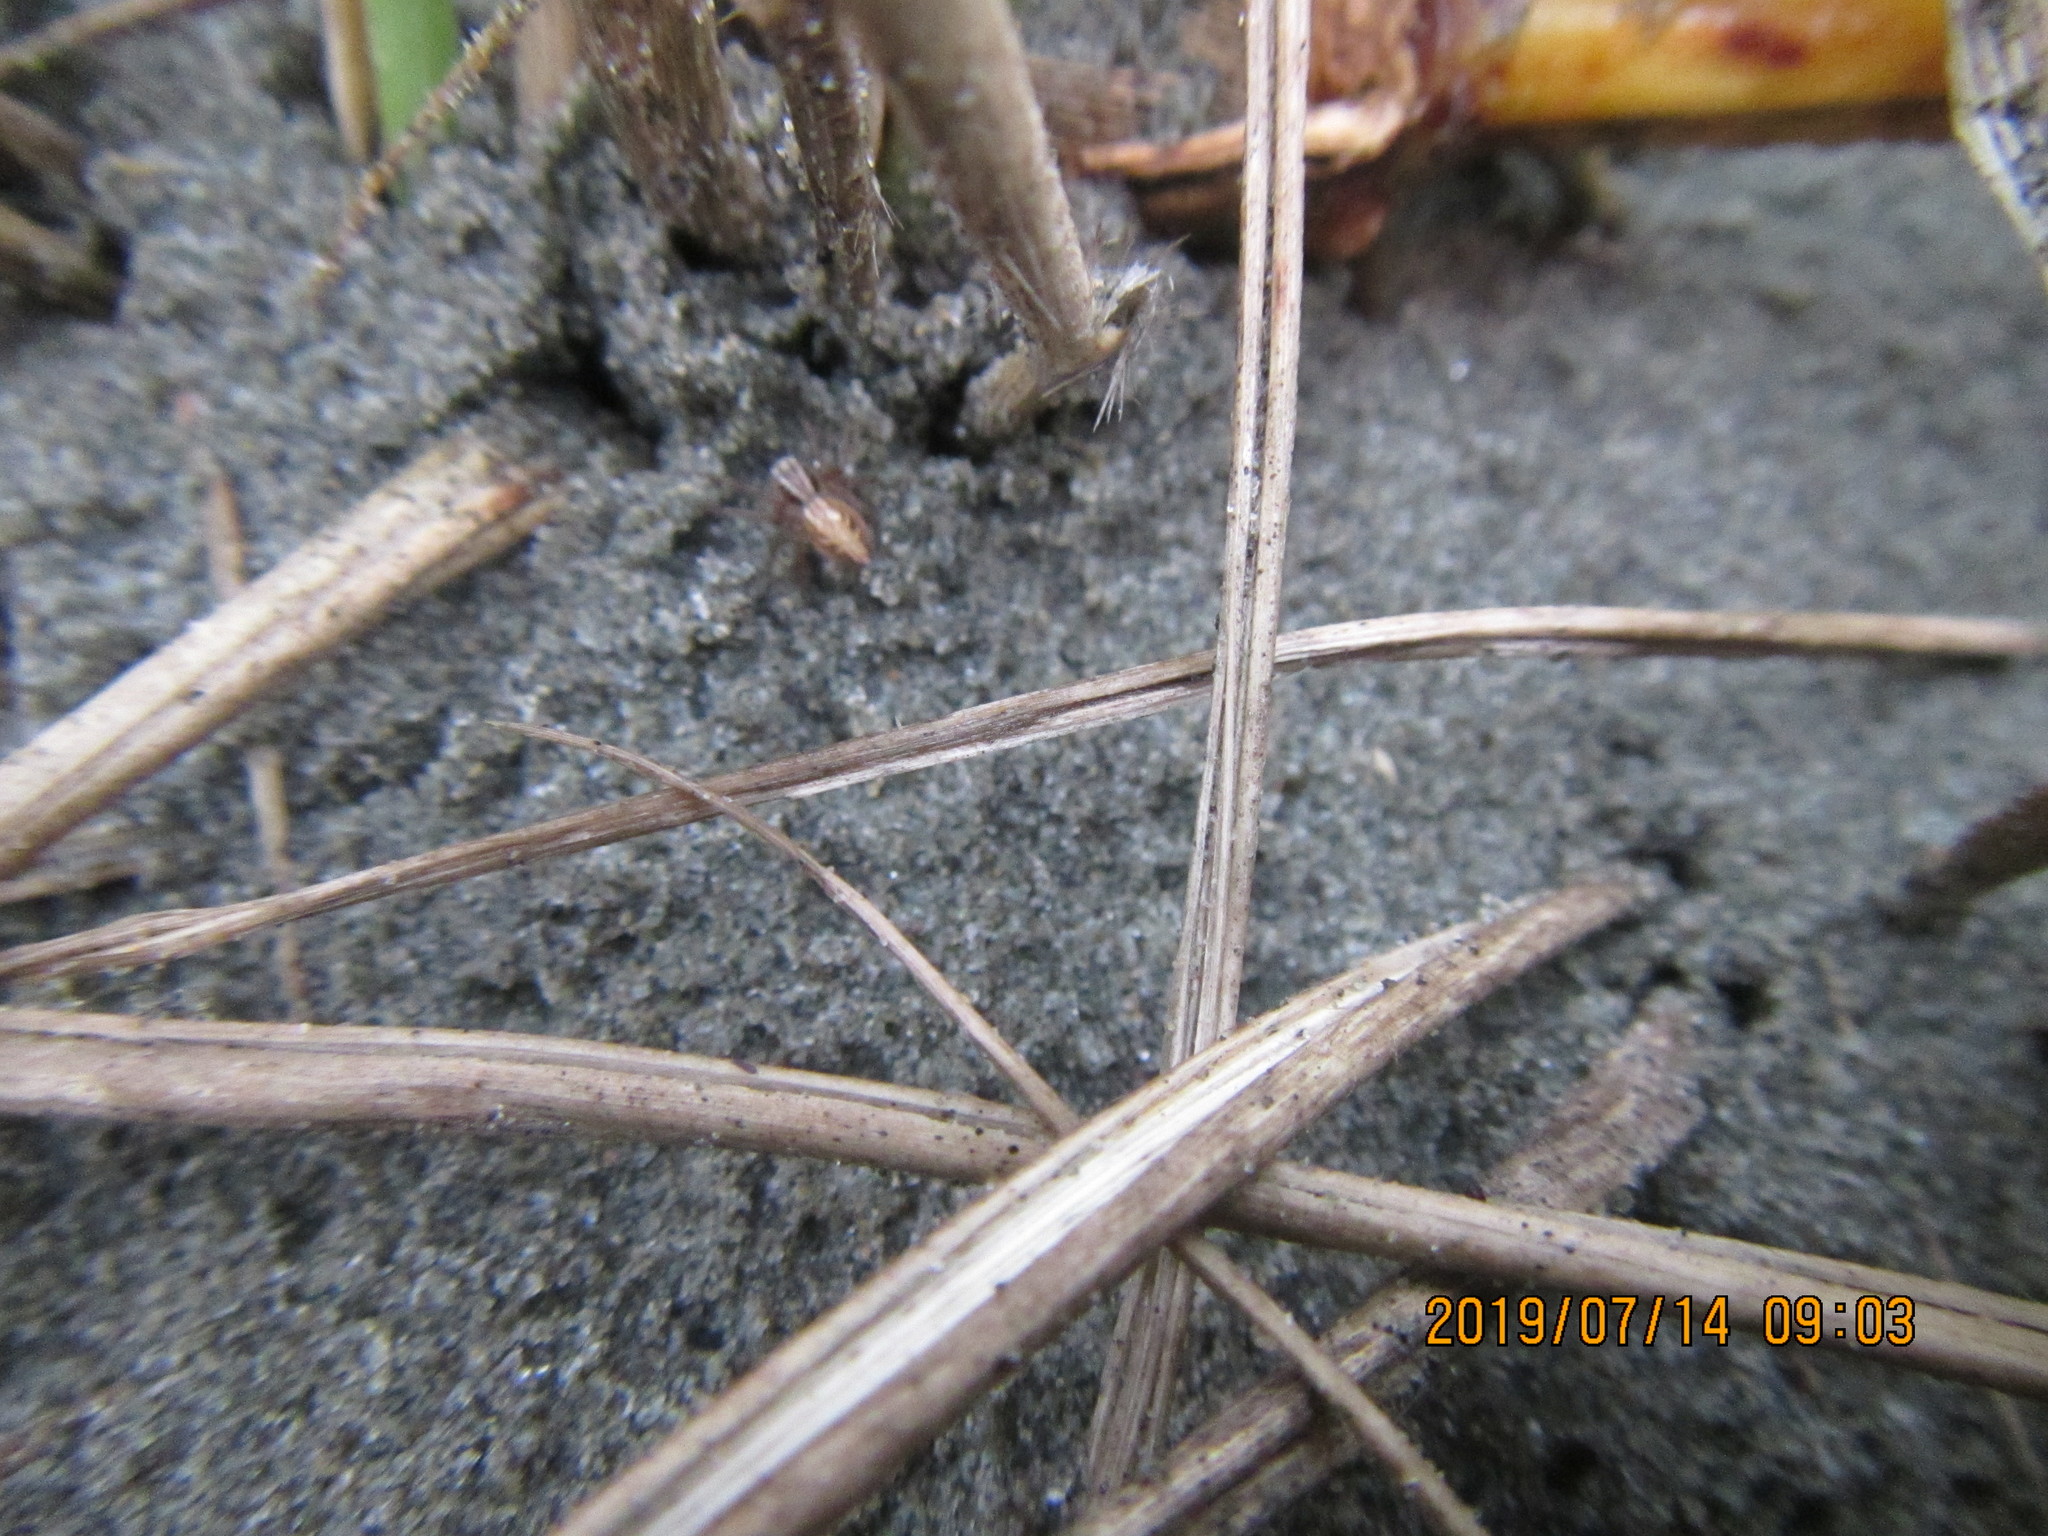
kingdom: Animalia
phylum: Arthropoda
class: Arachnida
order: Araneae
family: Oxyopidae
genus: Oxyopes
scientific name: Oxyopes gracilipes
